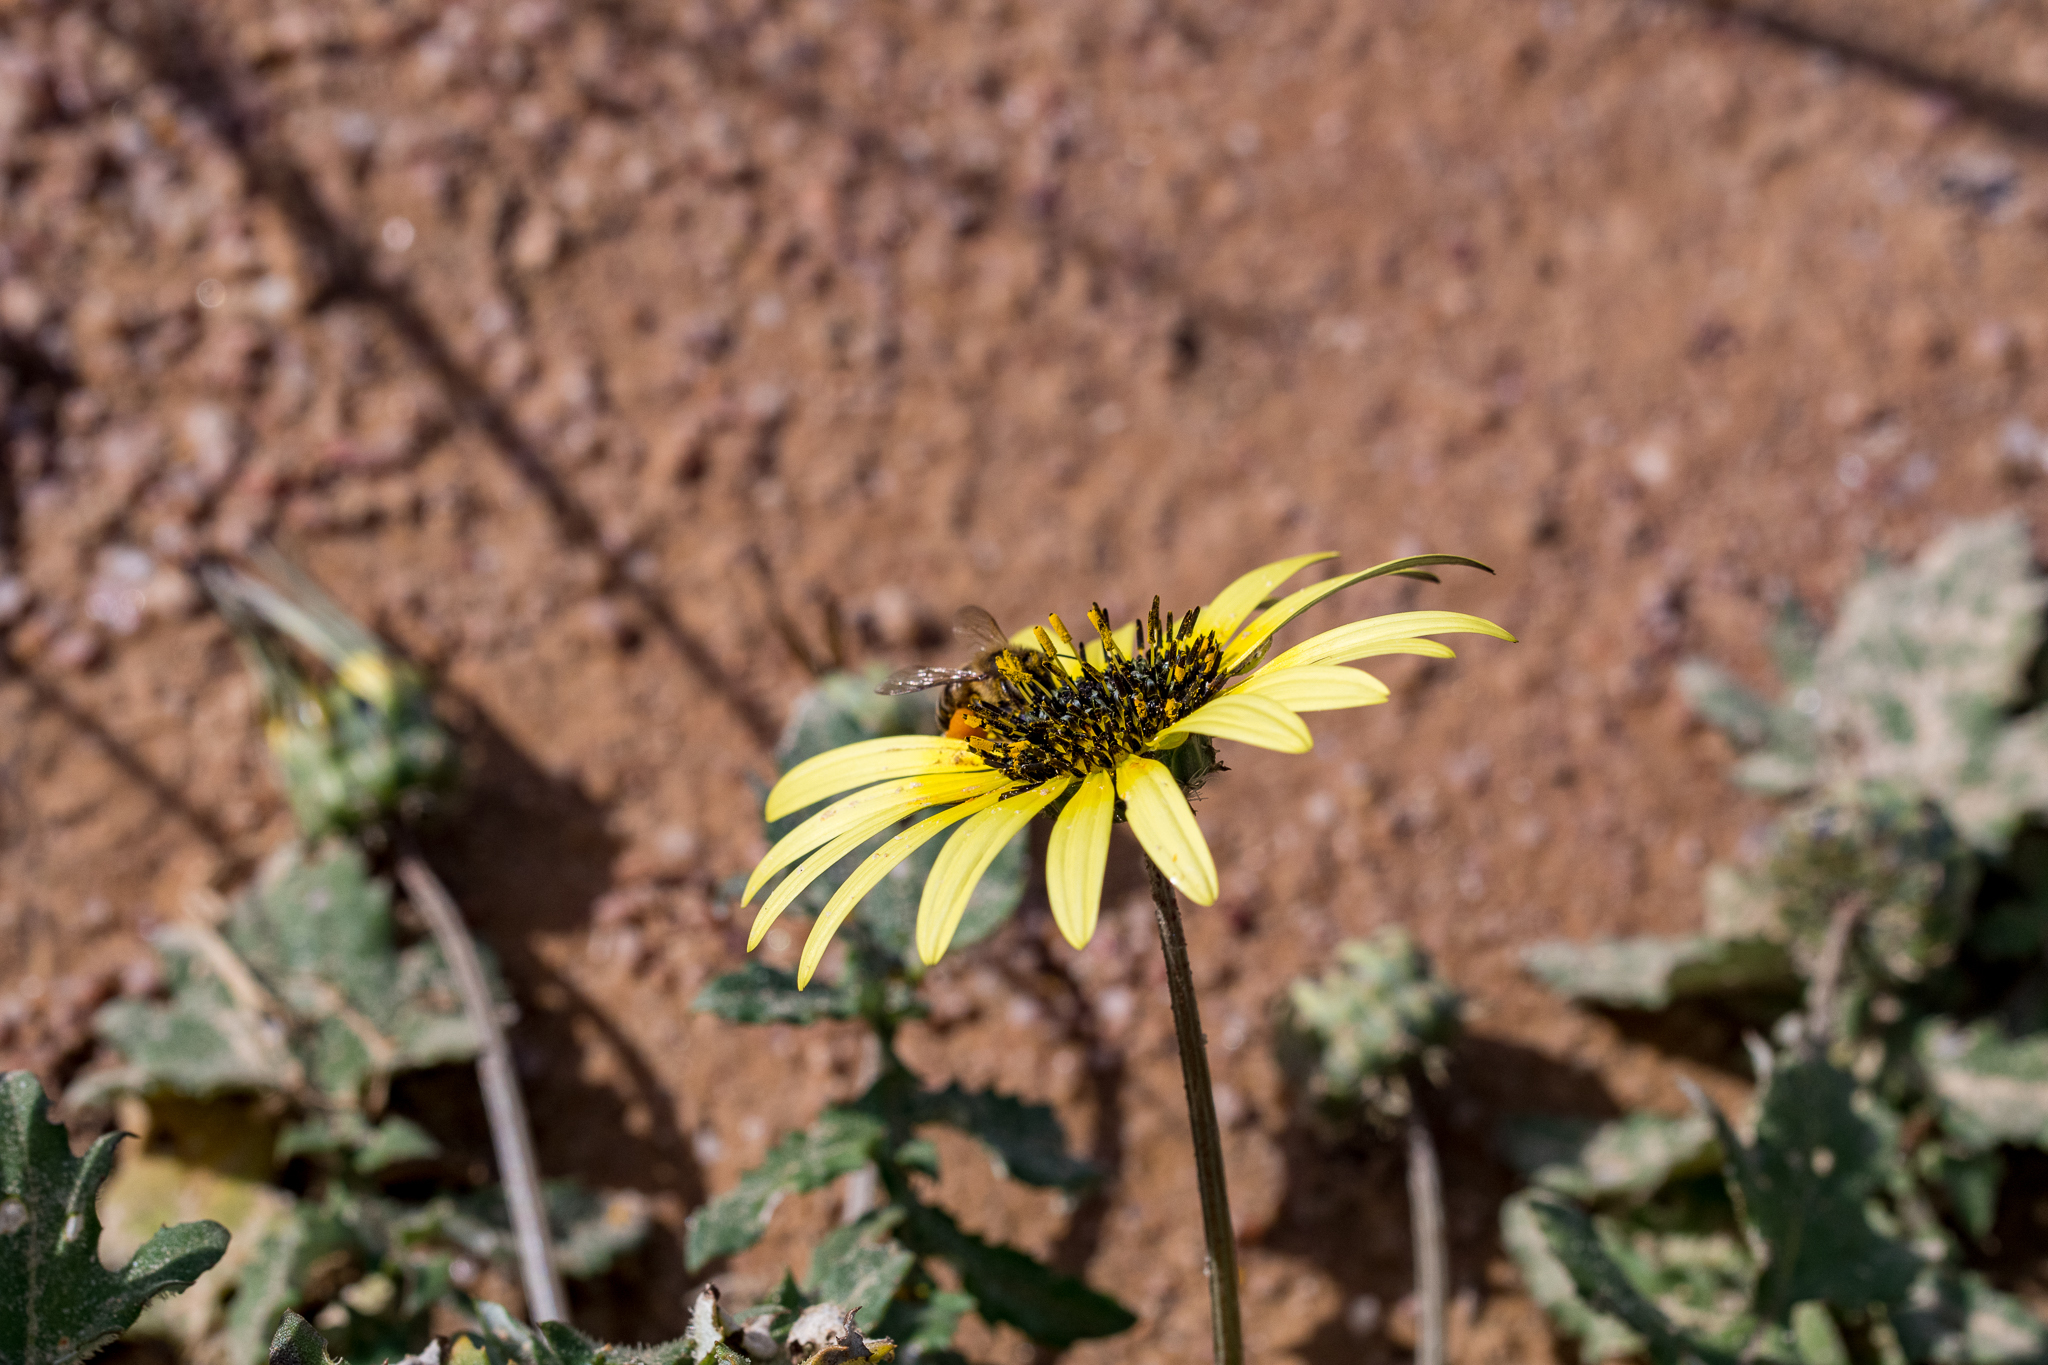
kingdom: Animalia
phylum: Arthropoda
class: Insecta
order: Hymenoptera
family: Apidae
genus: Apis
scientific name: Apis mellifera
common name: Honey bee
